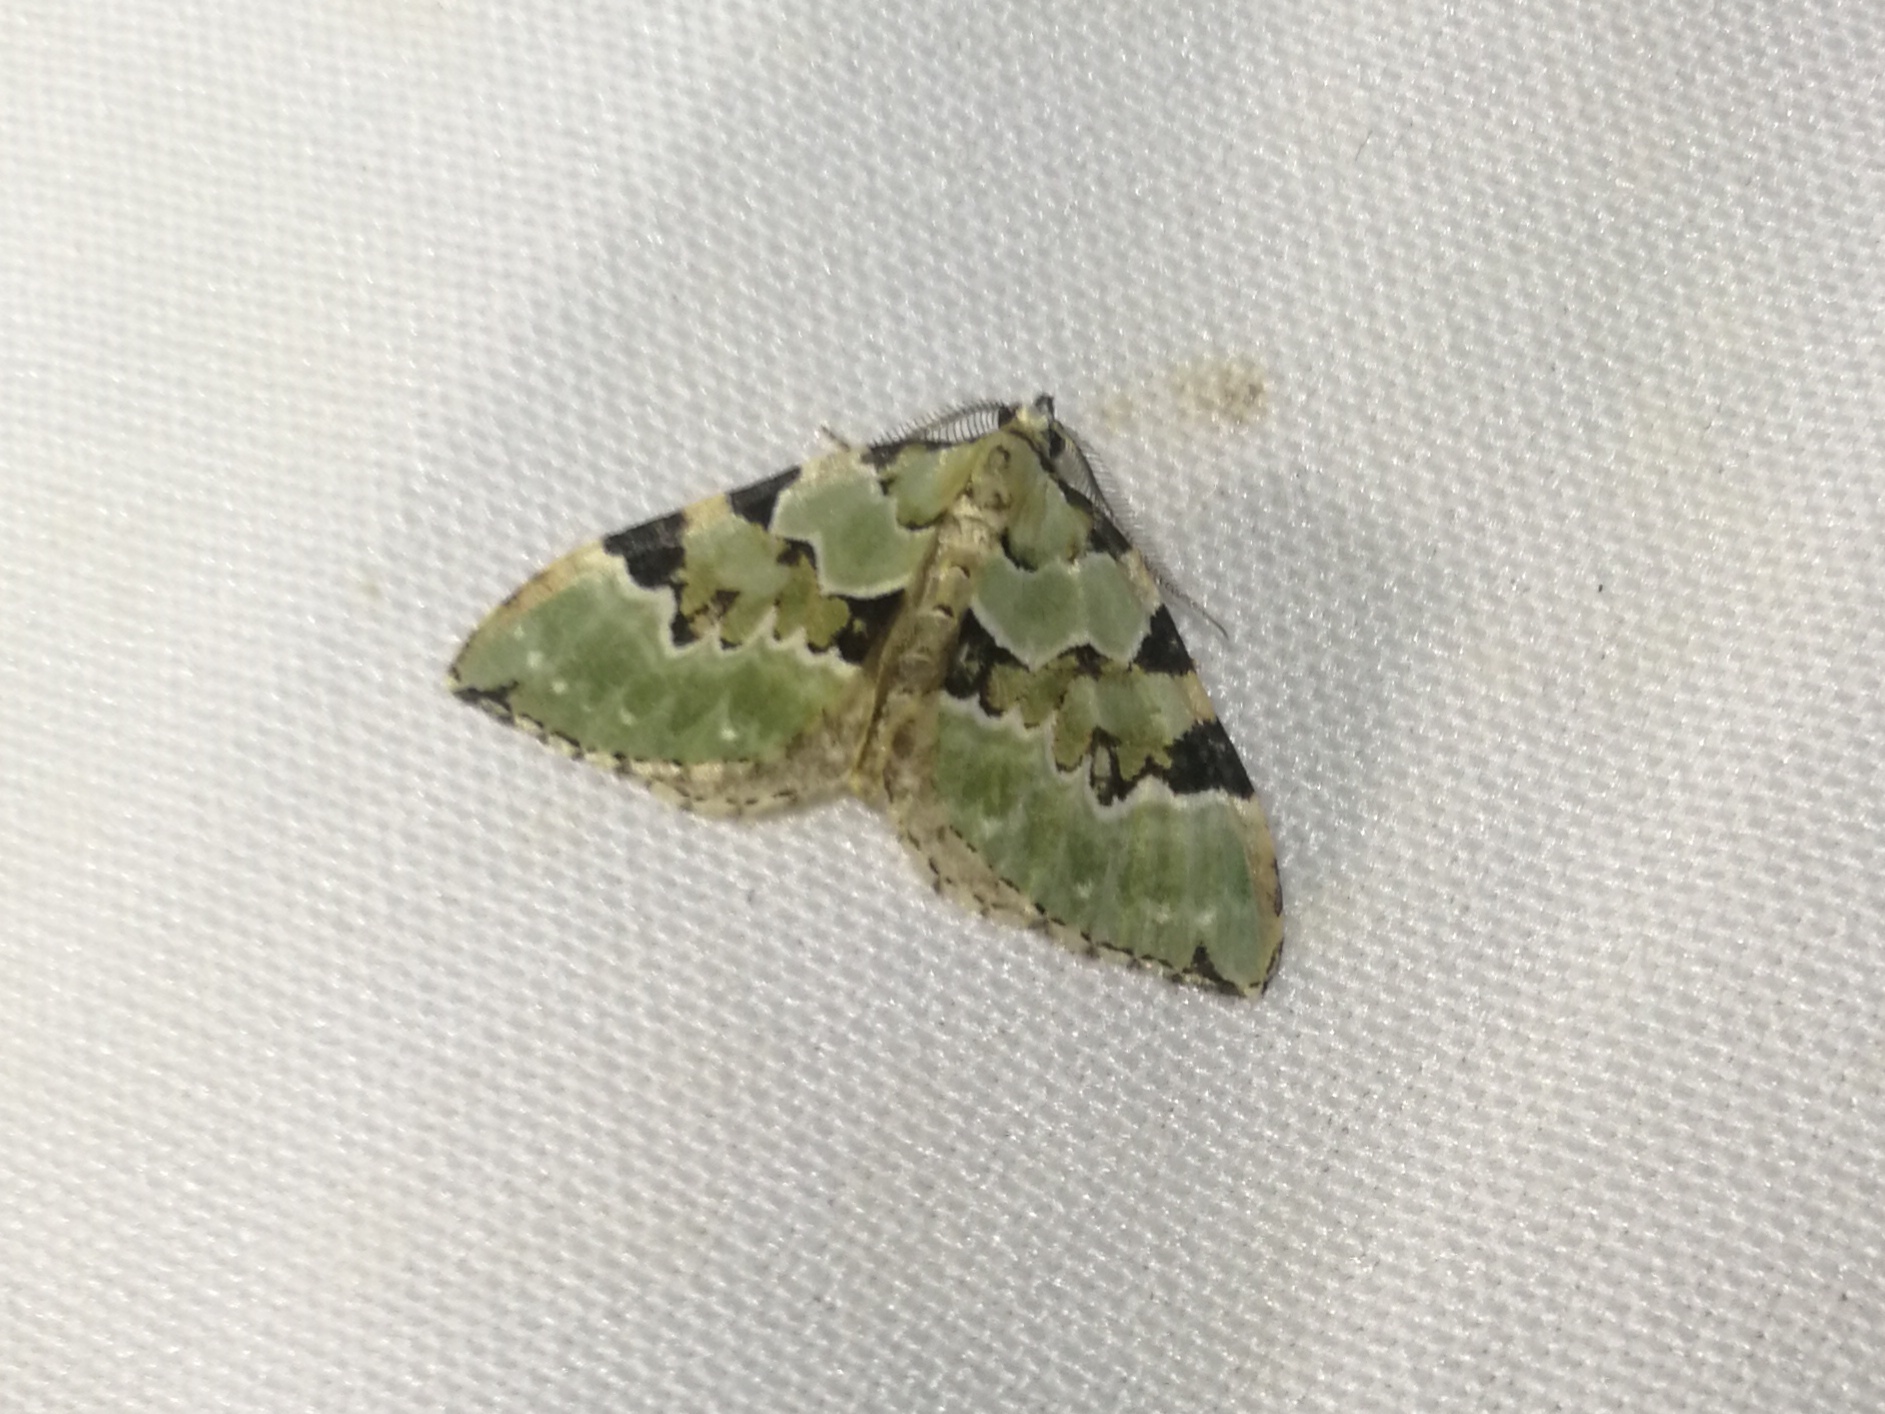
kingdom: Animalia
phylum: Arthropoda
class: Insecta
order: Lepidoptera
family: Geometridae
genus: Colostygia
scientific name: Colostygia pectinataria
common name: Green carpet
